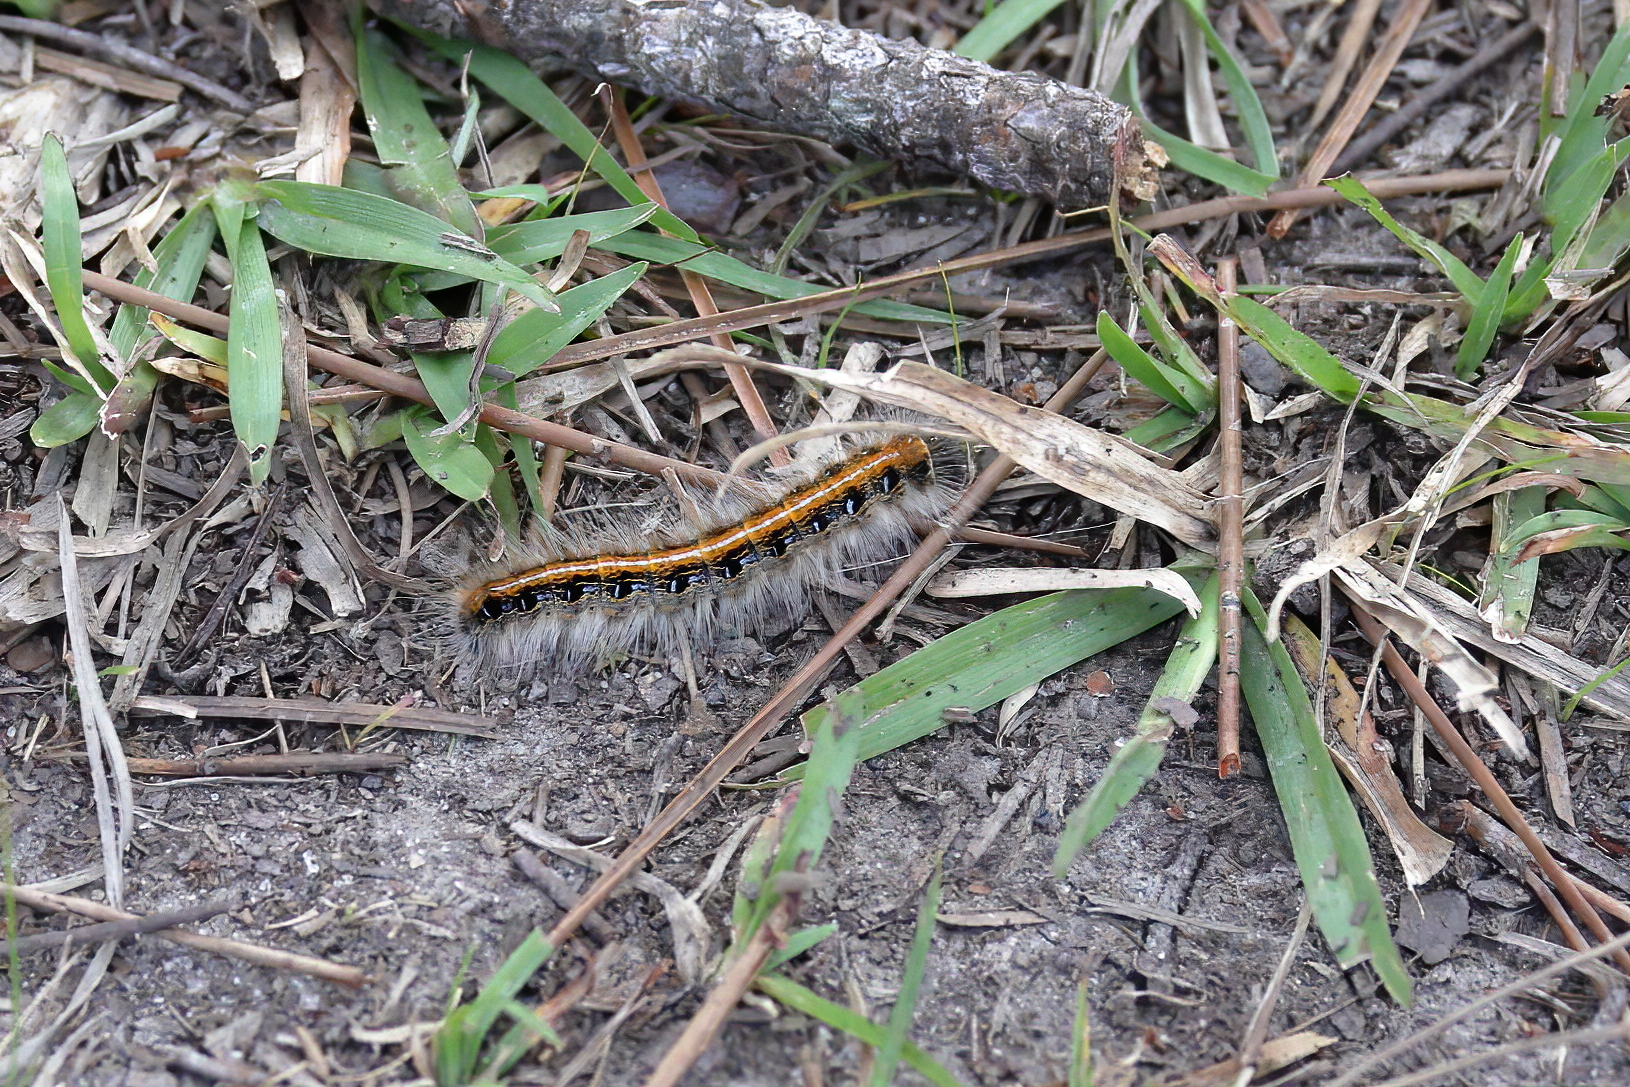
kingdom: Animalia
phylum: Arthropoda
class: Insecta
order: Lepidoptera
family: Lasiocampidae
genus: Malacosoma
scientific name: Malacosoma americana
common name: Eastern tent caterpillar moth
